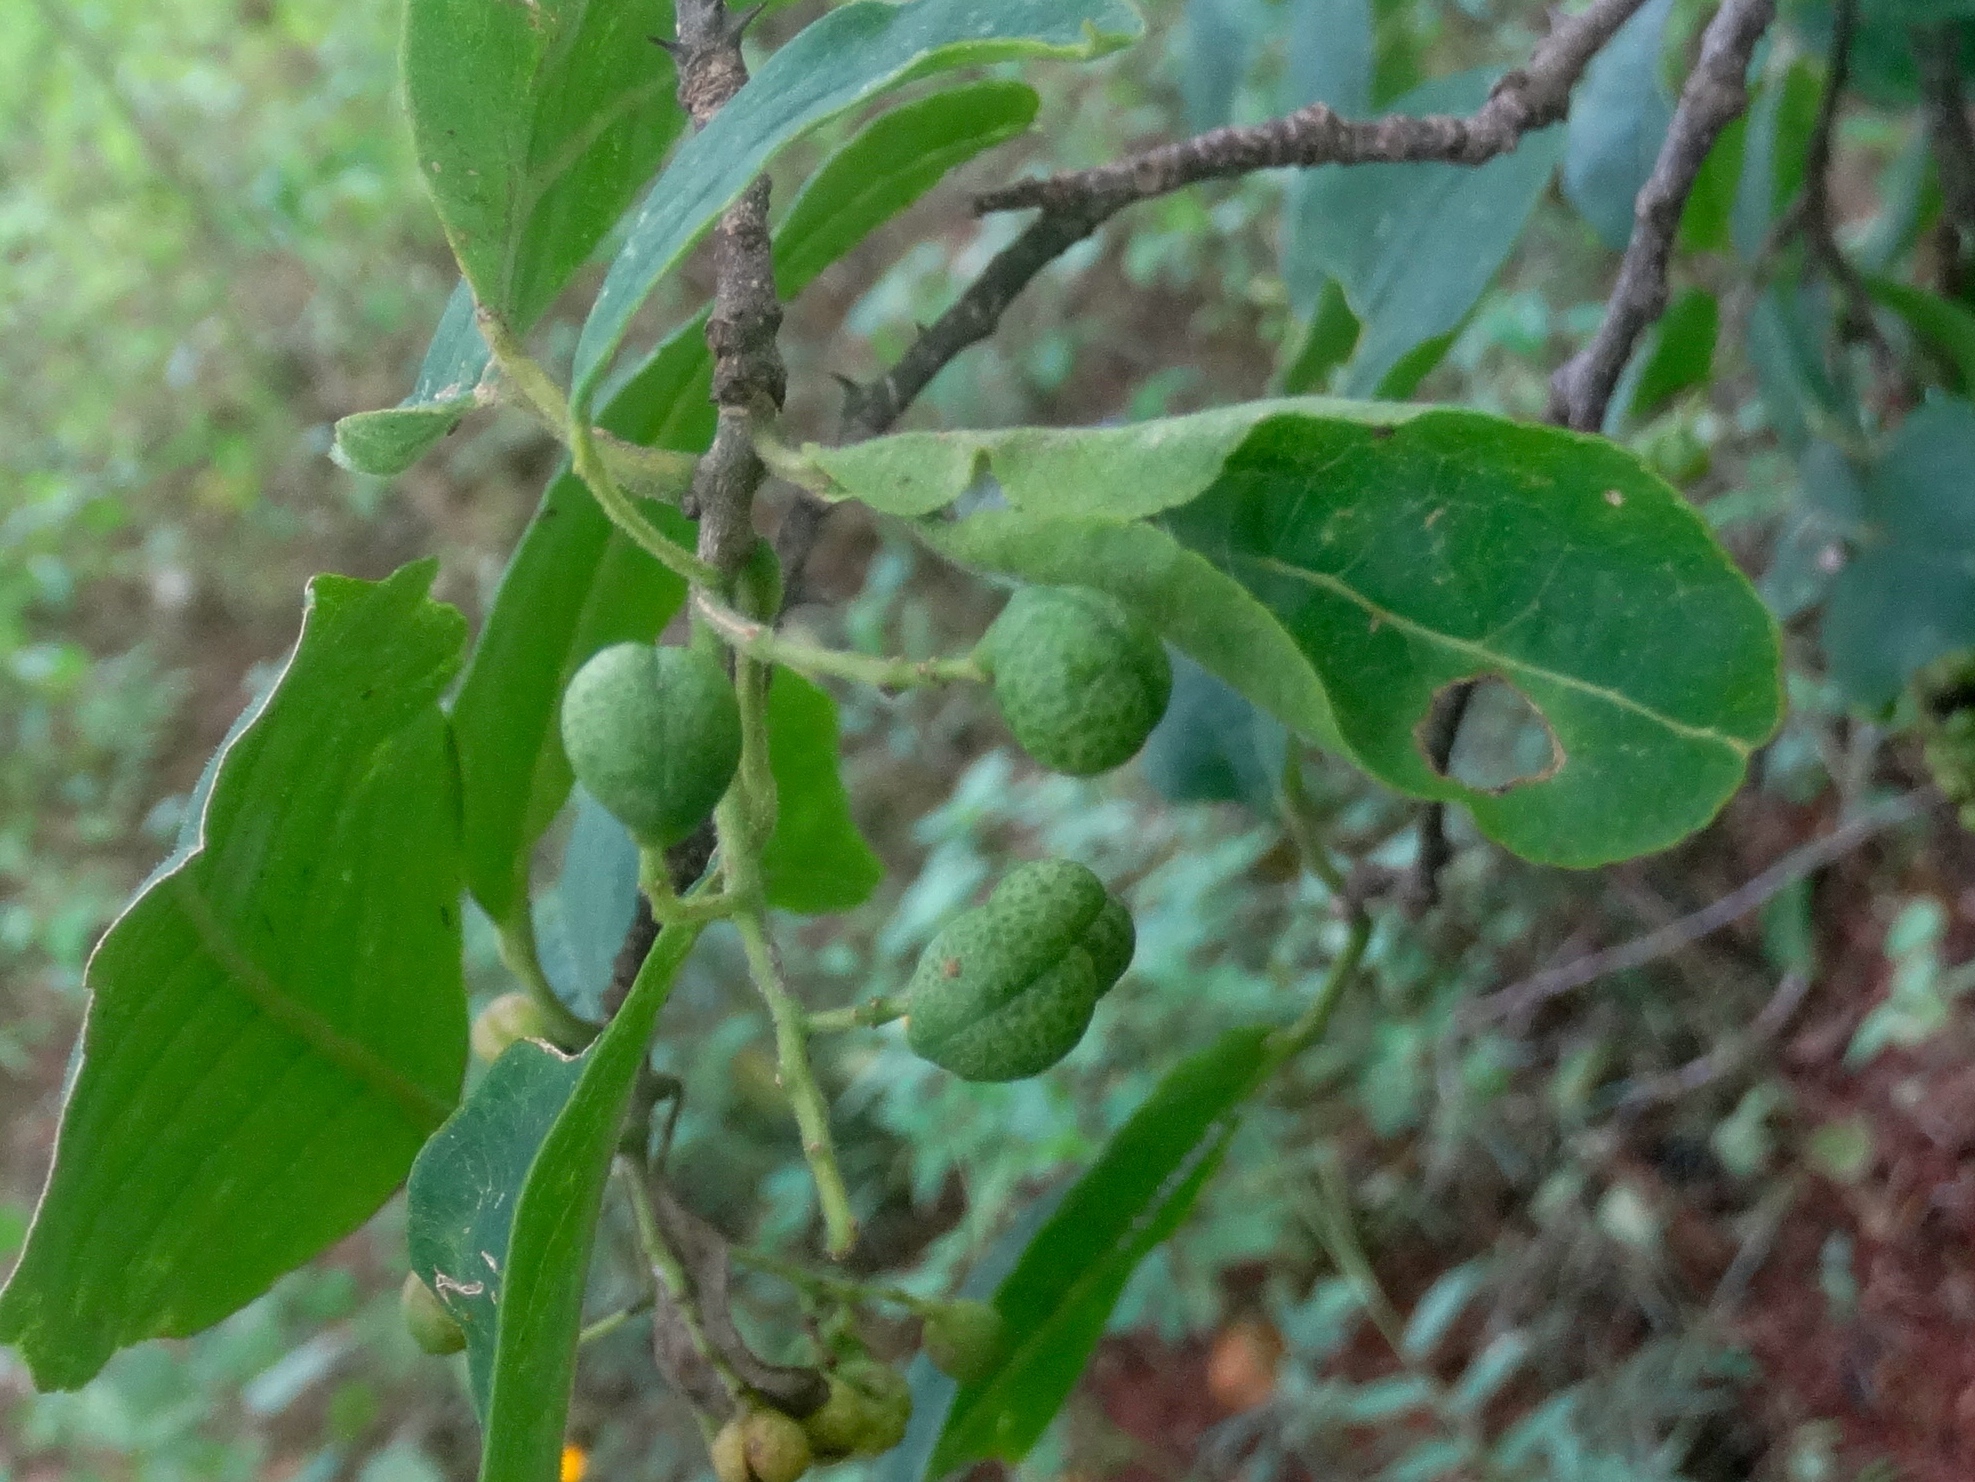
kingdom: Plantae
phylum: Tracheophyta
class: Magnoliopsida
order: Sapindales
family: Rutaceae
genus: Zanthoxylum
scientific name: Zanthoxylum arborescens
